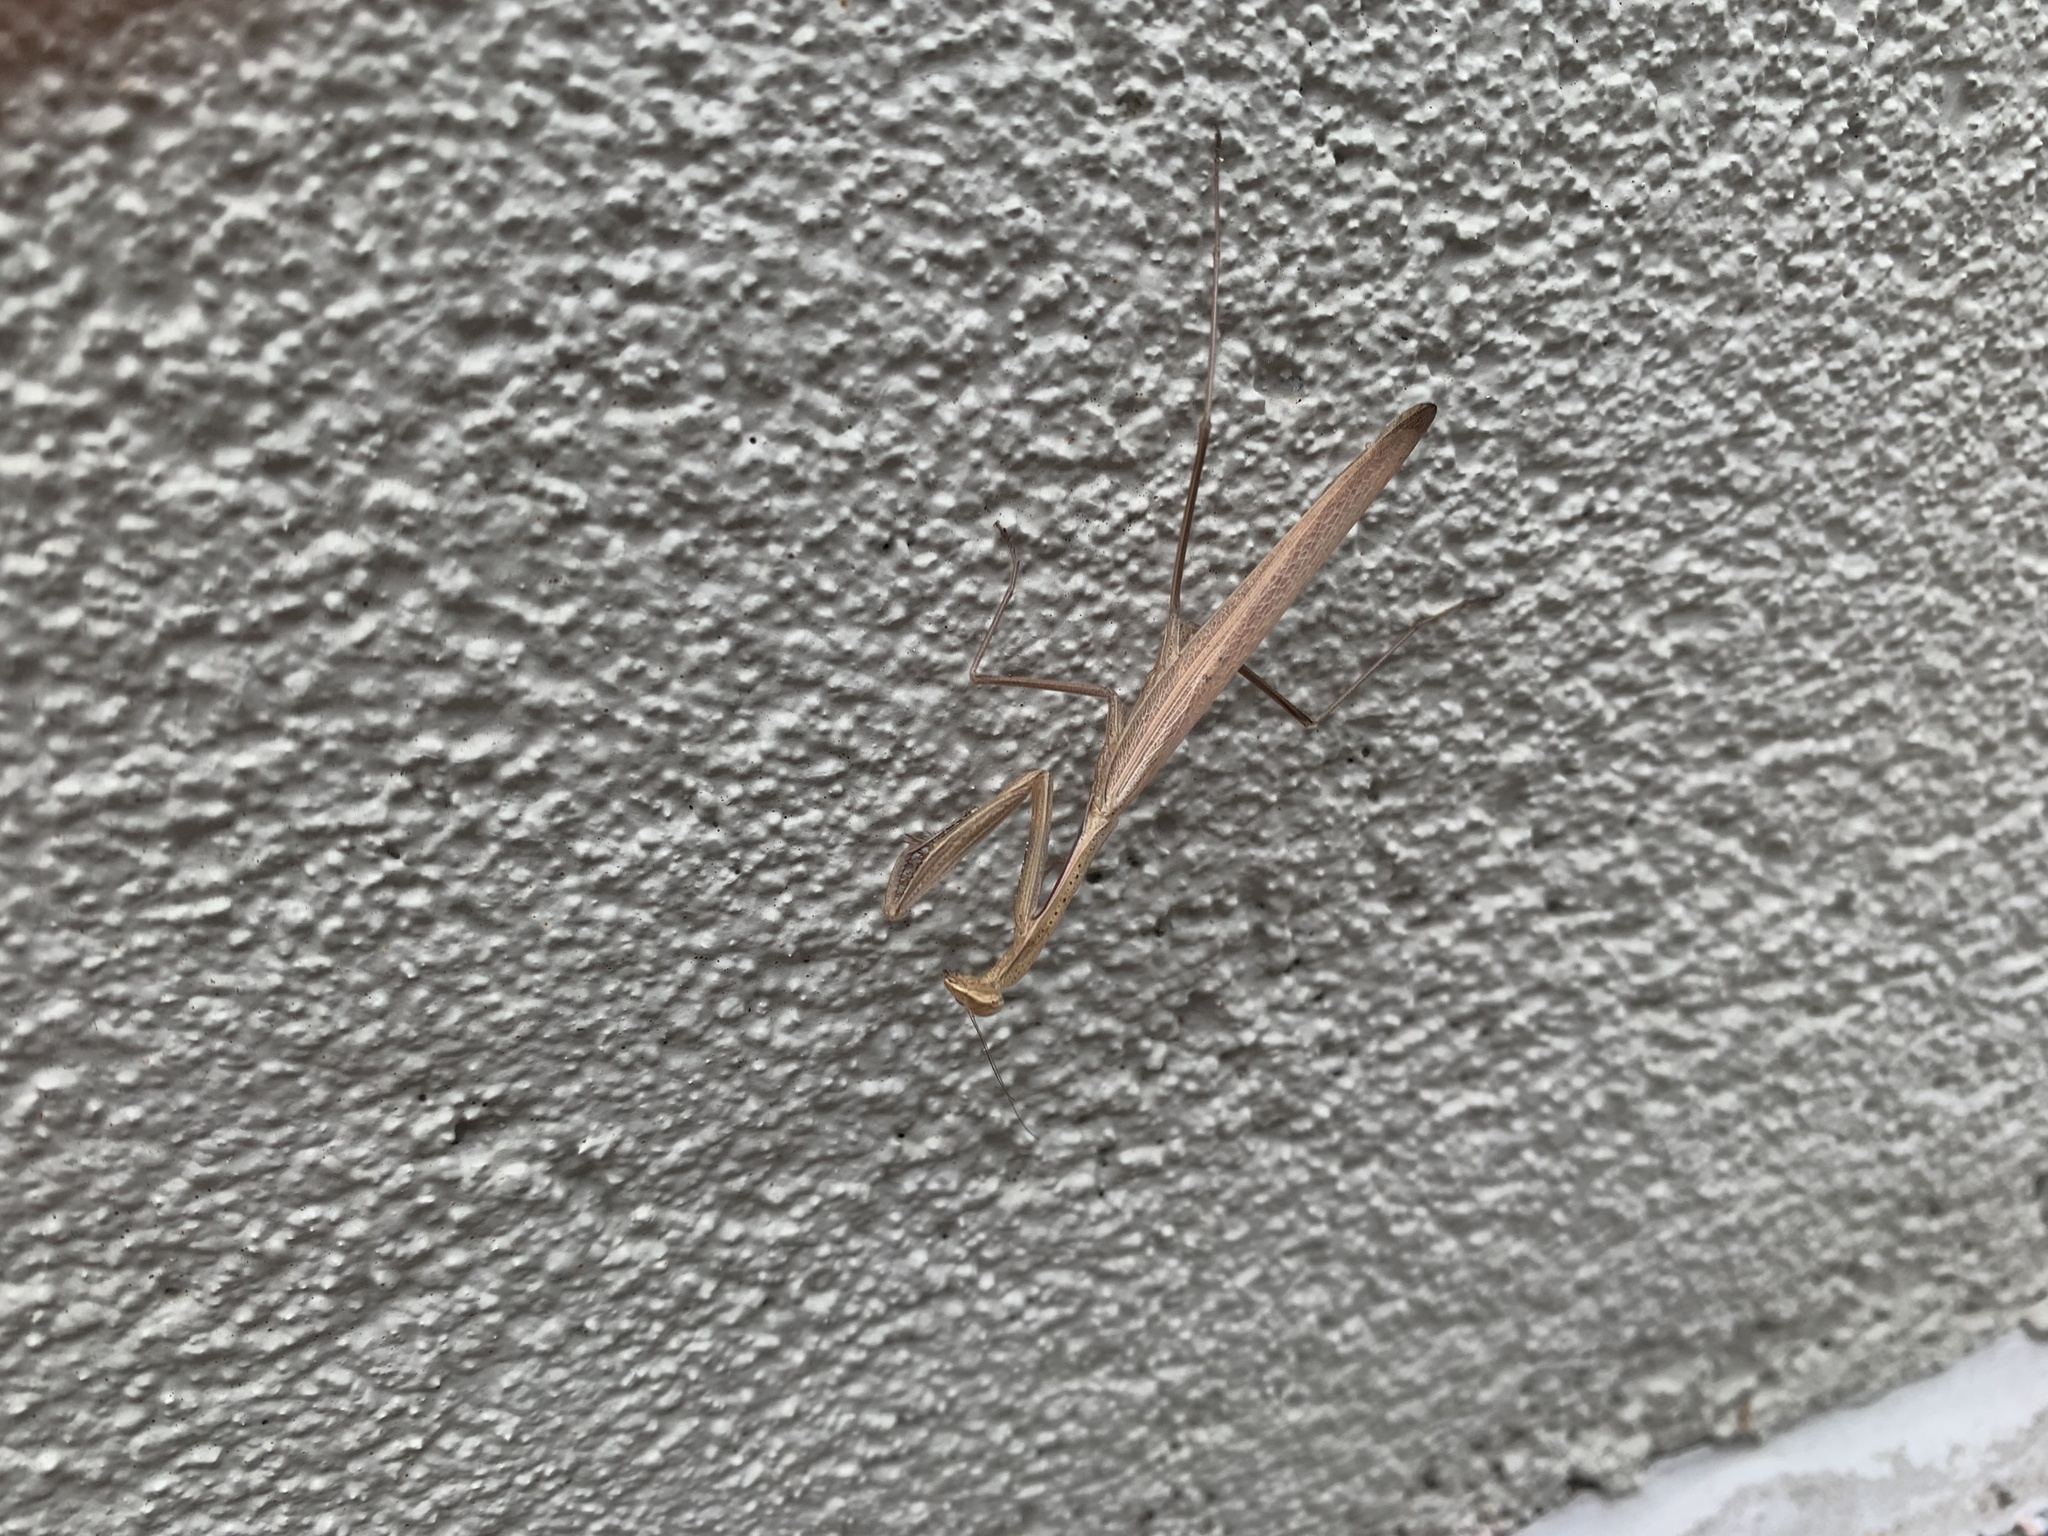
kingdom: Animalia
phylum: Arthropoda
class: Insecta
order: Mantodea
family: Mantidae
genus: Statilia
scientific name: Statilia apicalis
